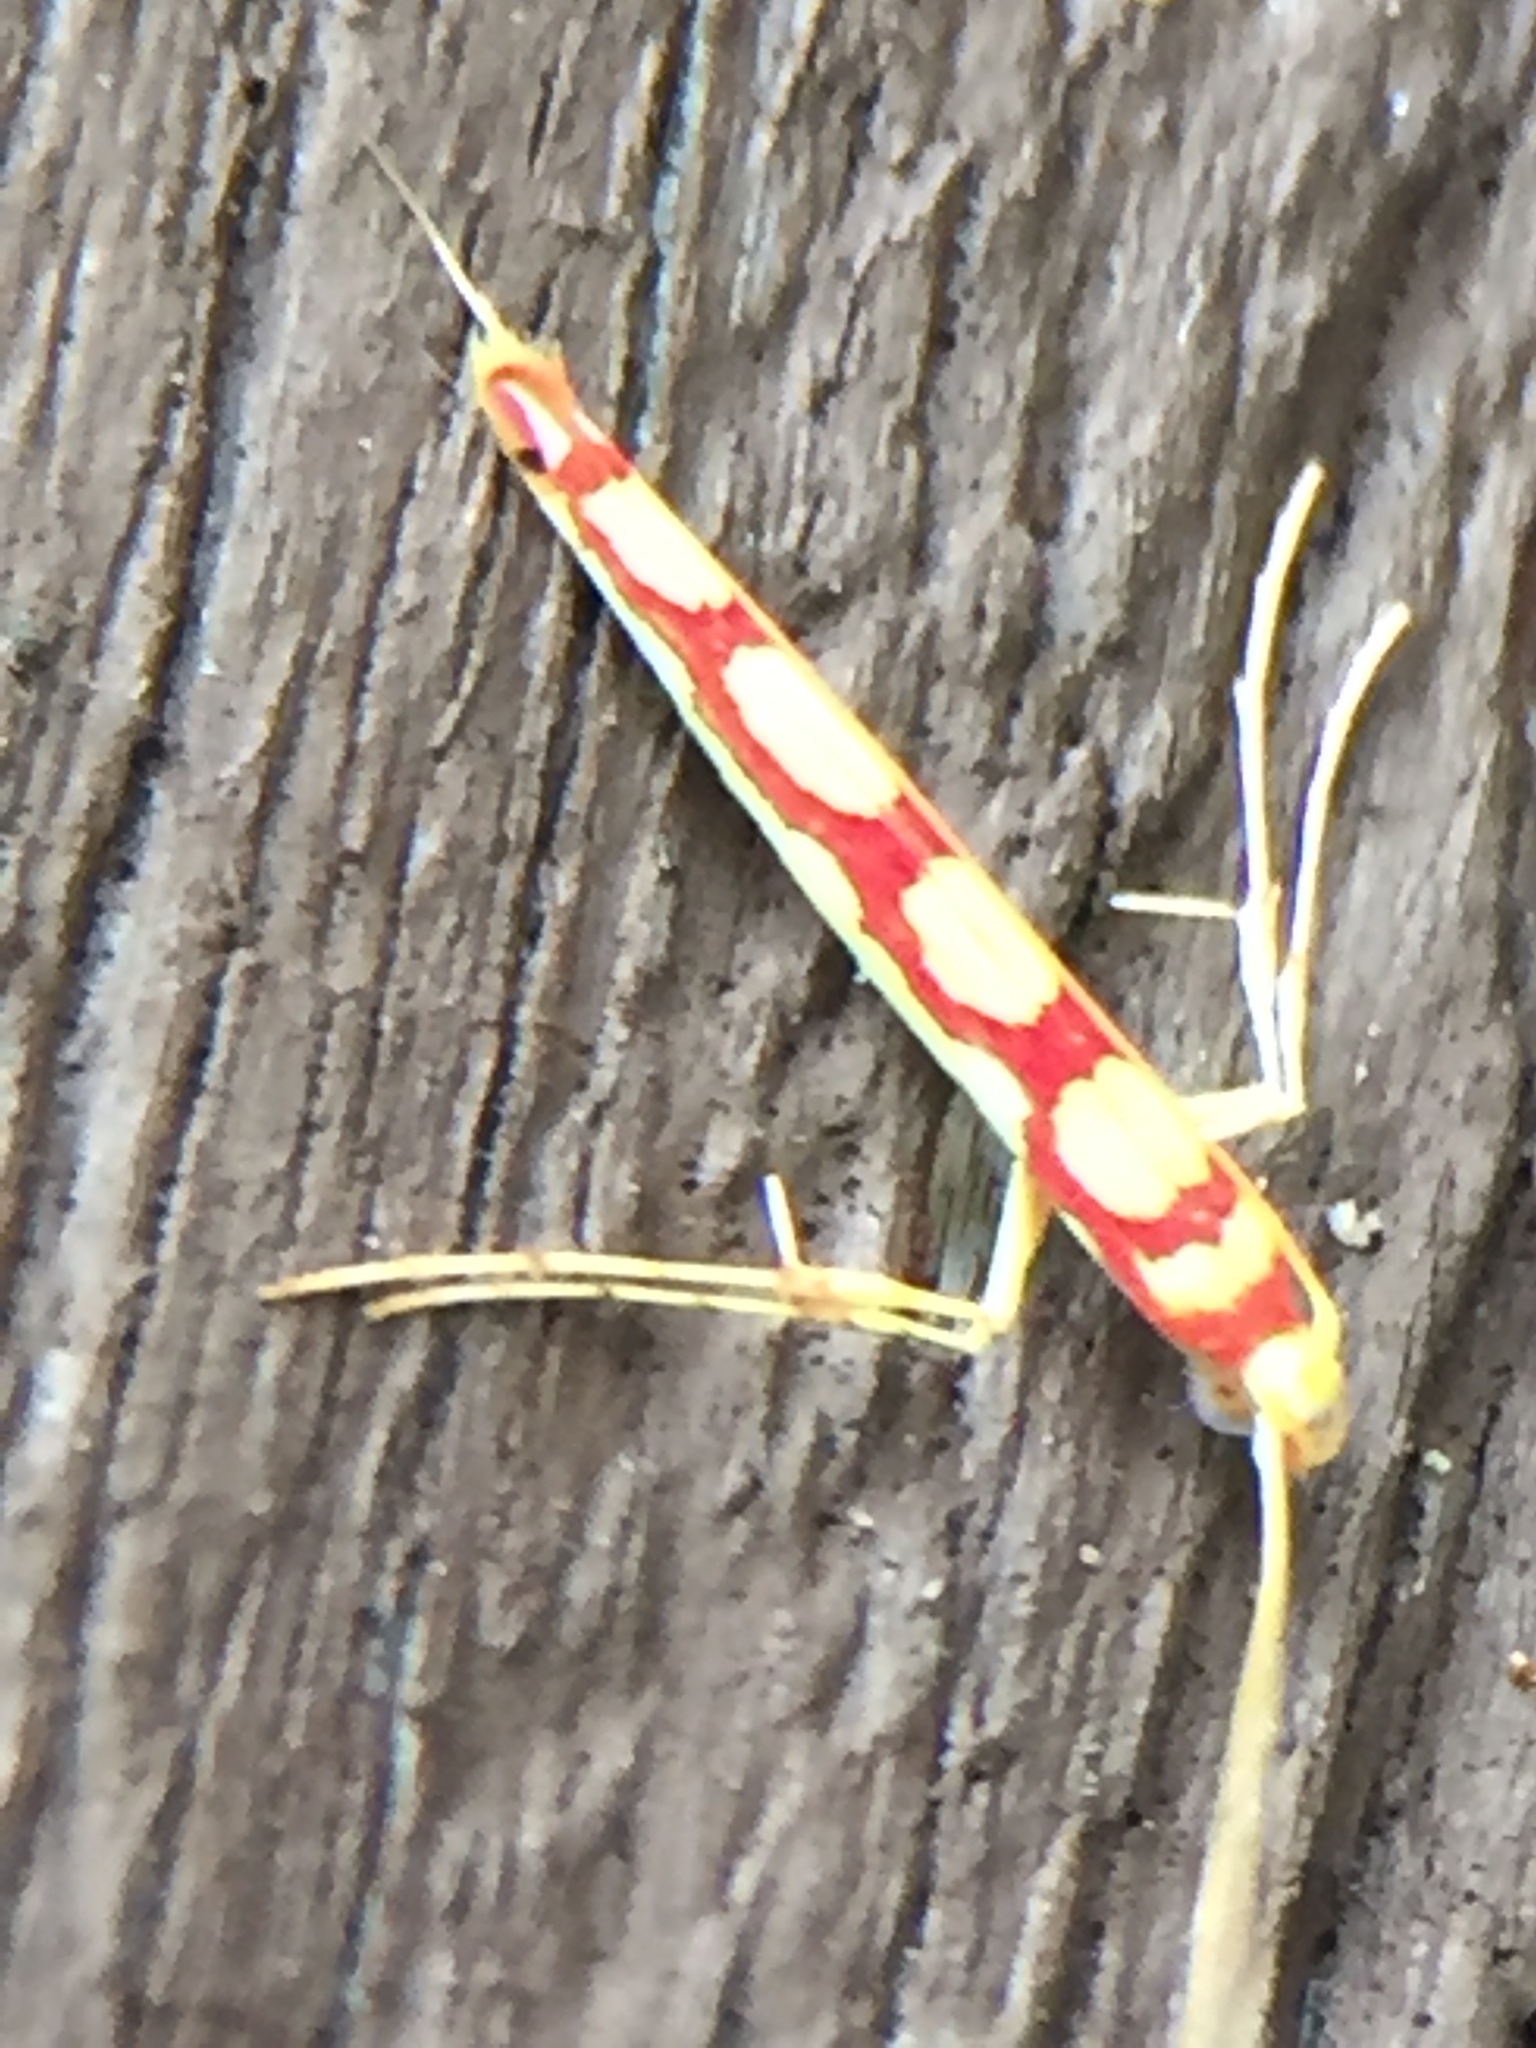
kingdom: Animalia
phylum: Arthropoda
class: Insecta
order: Lepidoptera
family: Gracillariidae
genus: Macarostola
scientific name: Macarostola miniella
